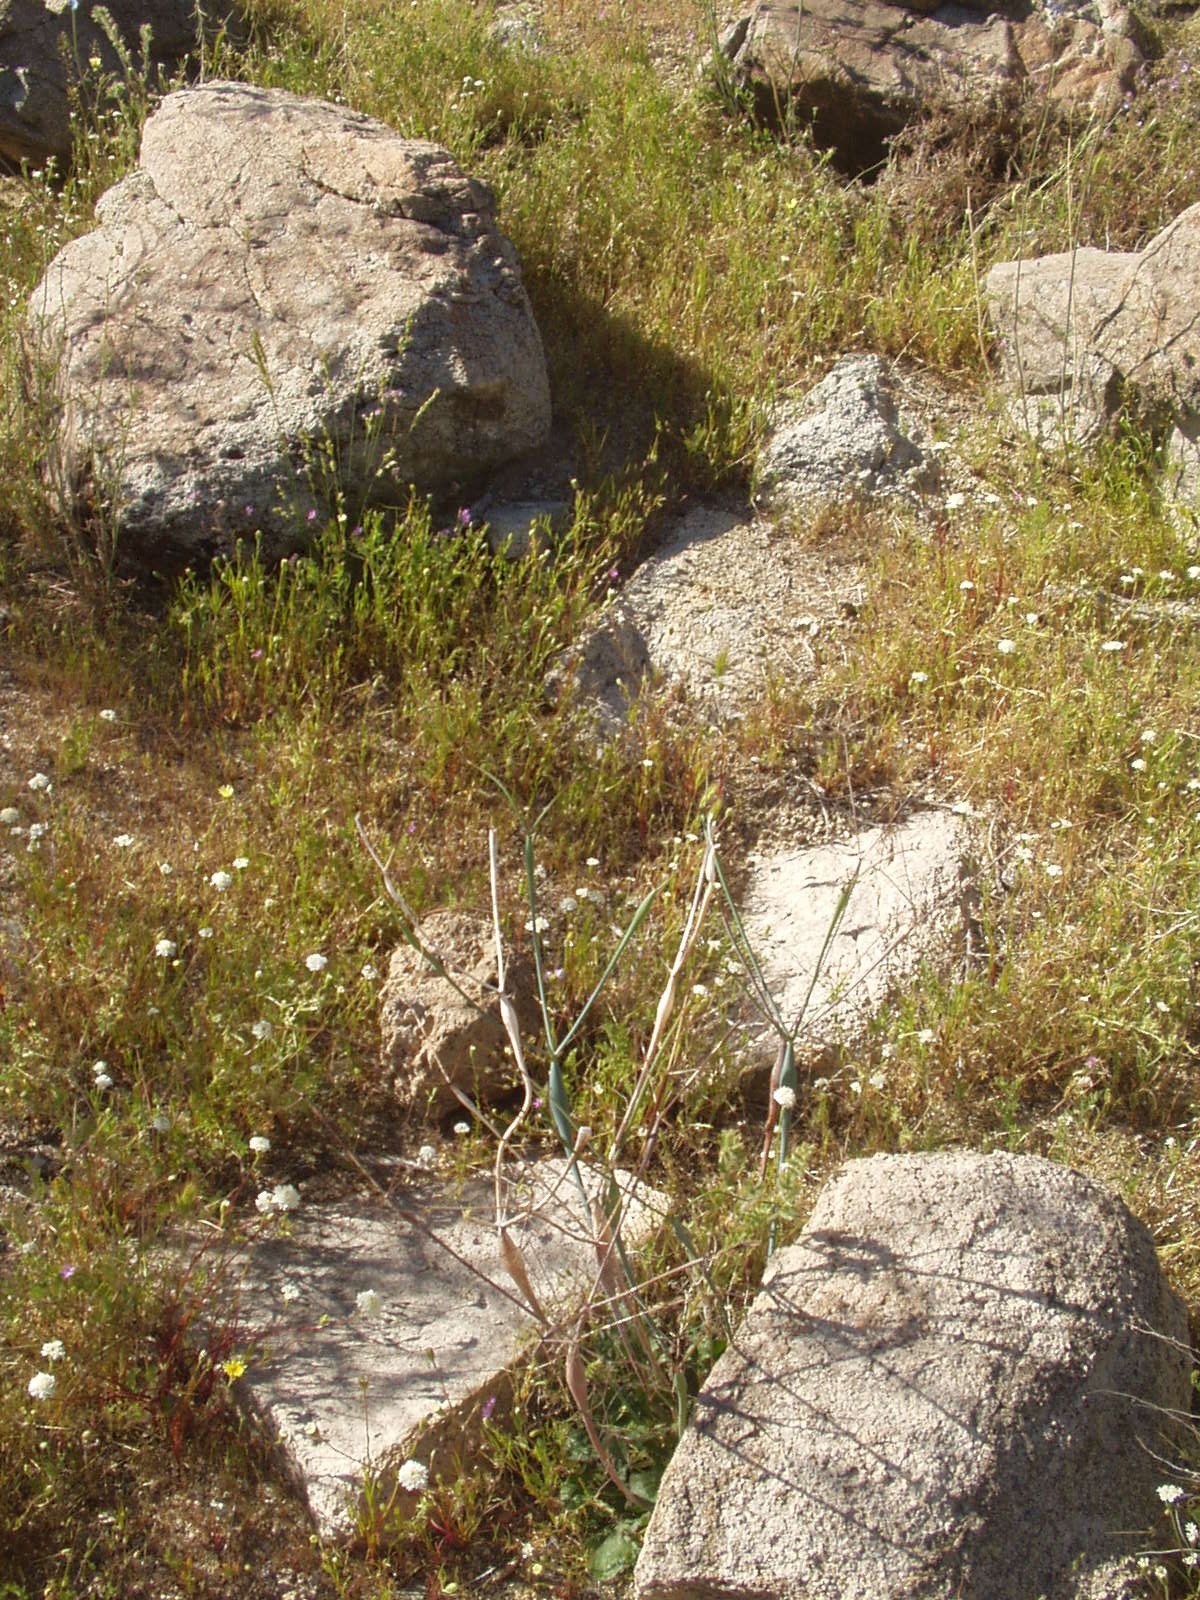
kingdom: Plantae
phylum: Tracheophyta
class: Magnoliopsida
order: Caryophyllales
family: Polygonaceae
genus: Eriogonum
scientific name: Eriogonum inflatum
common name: Desert trumpet
